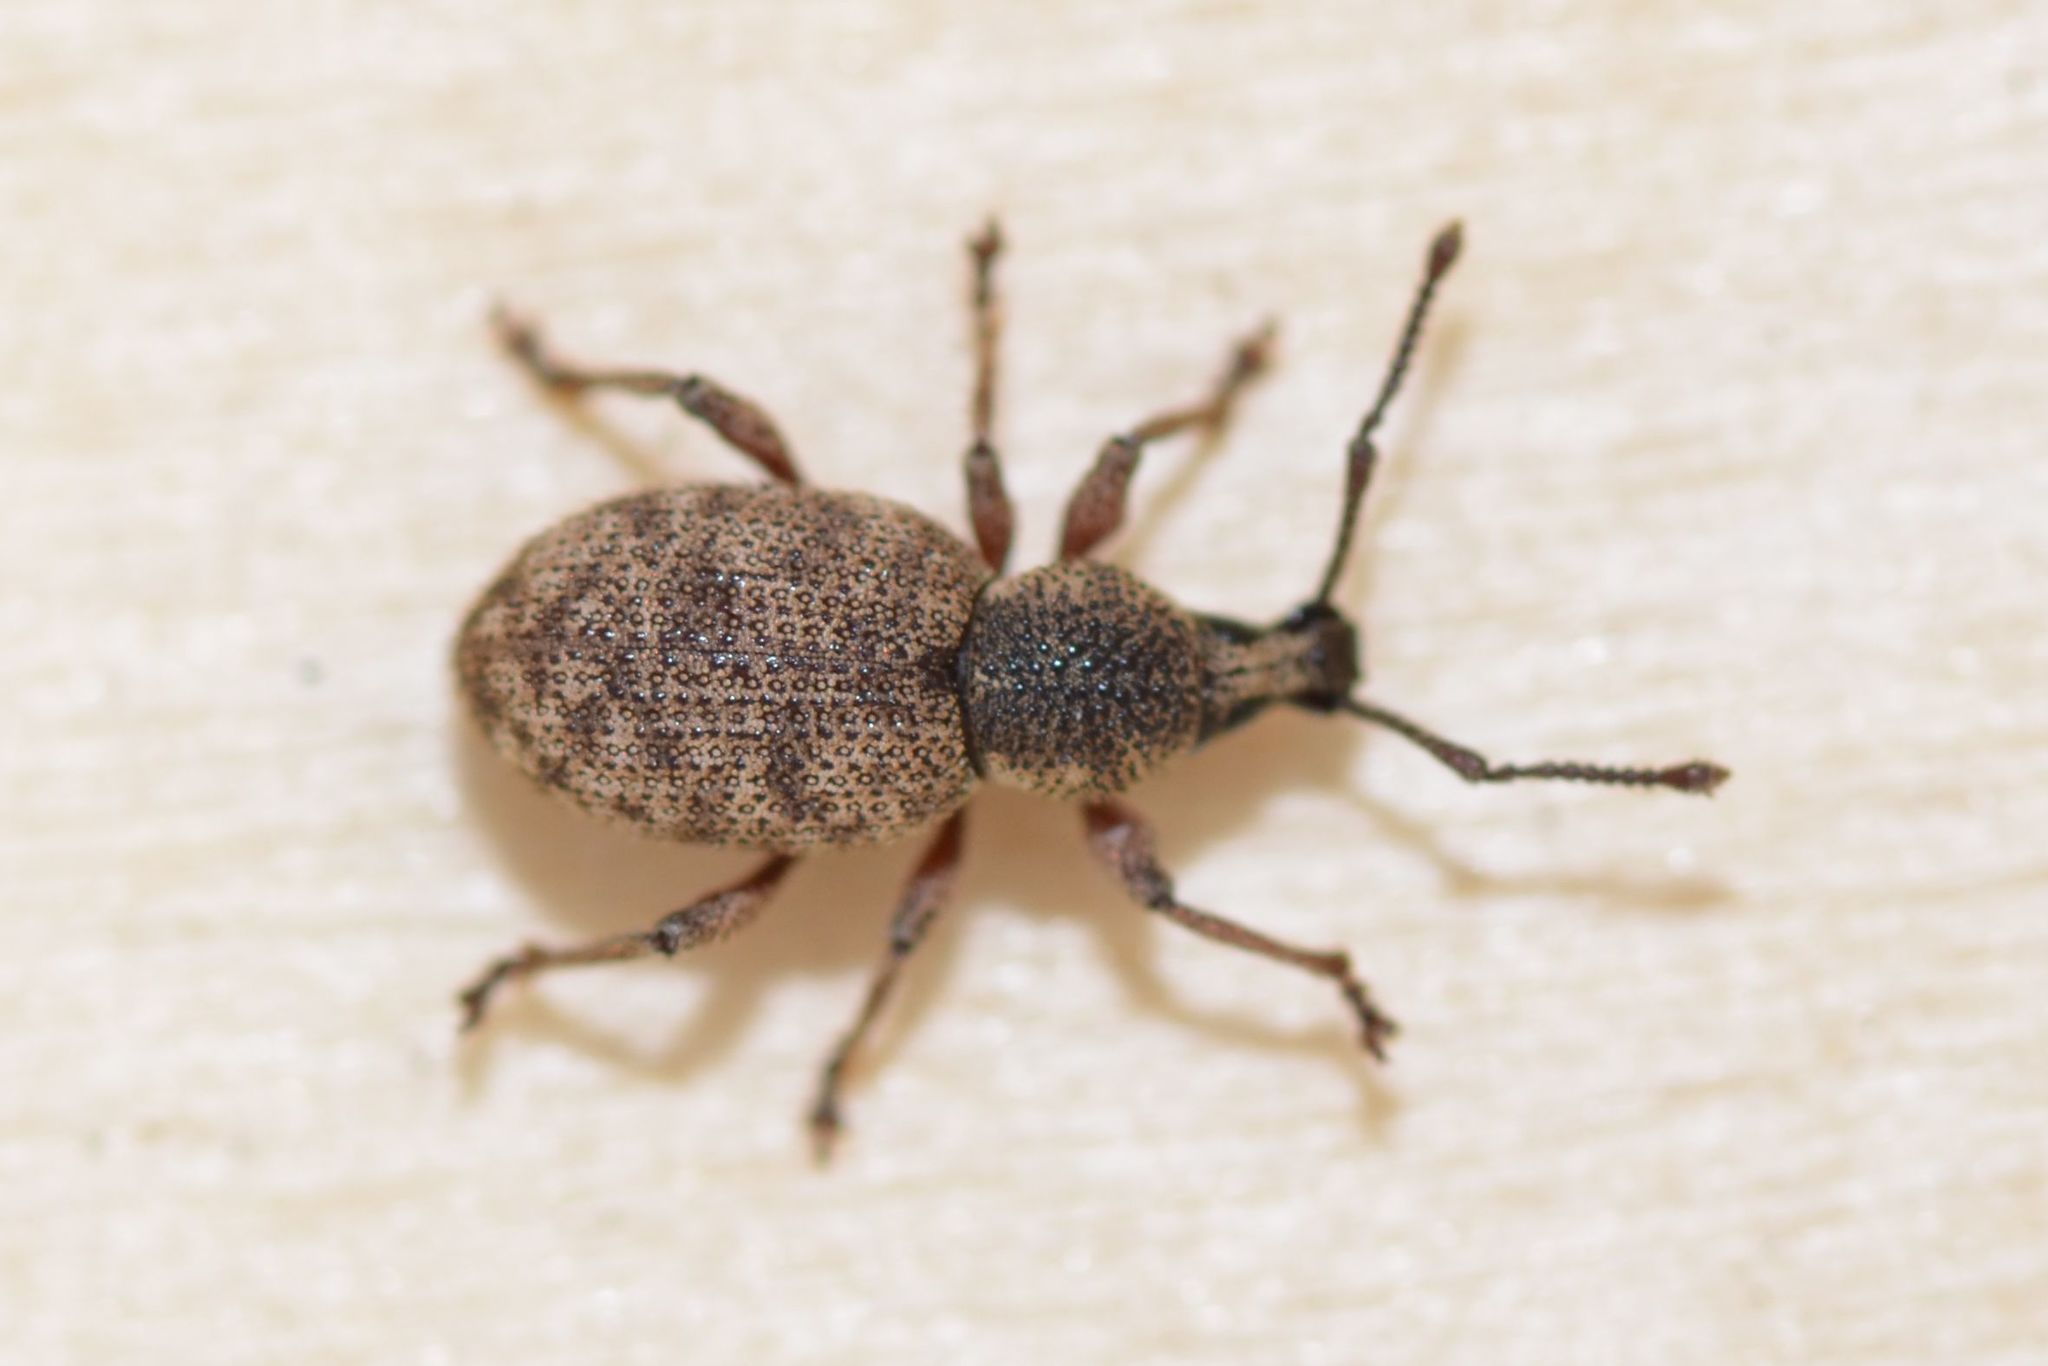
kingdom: Animalia
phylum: Arthropoda
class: Insecta
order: Coleoptera
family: Curculionidae
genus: Otiorhynchus
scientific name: Otiorhynchus singularis
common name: Clay-coloured weevil
